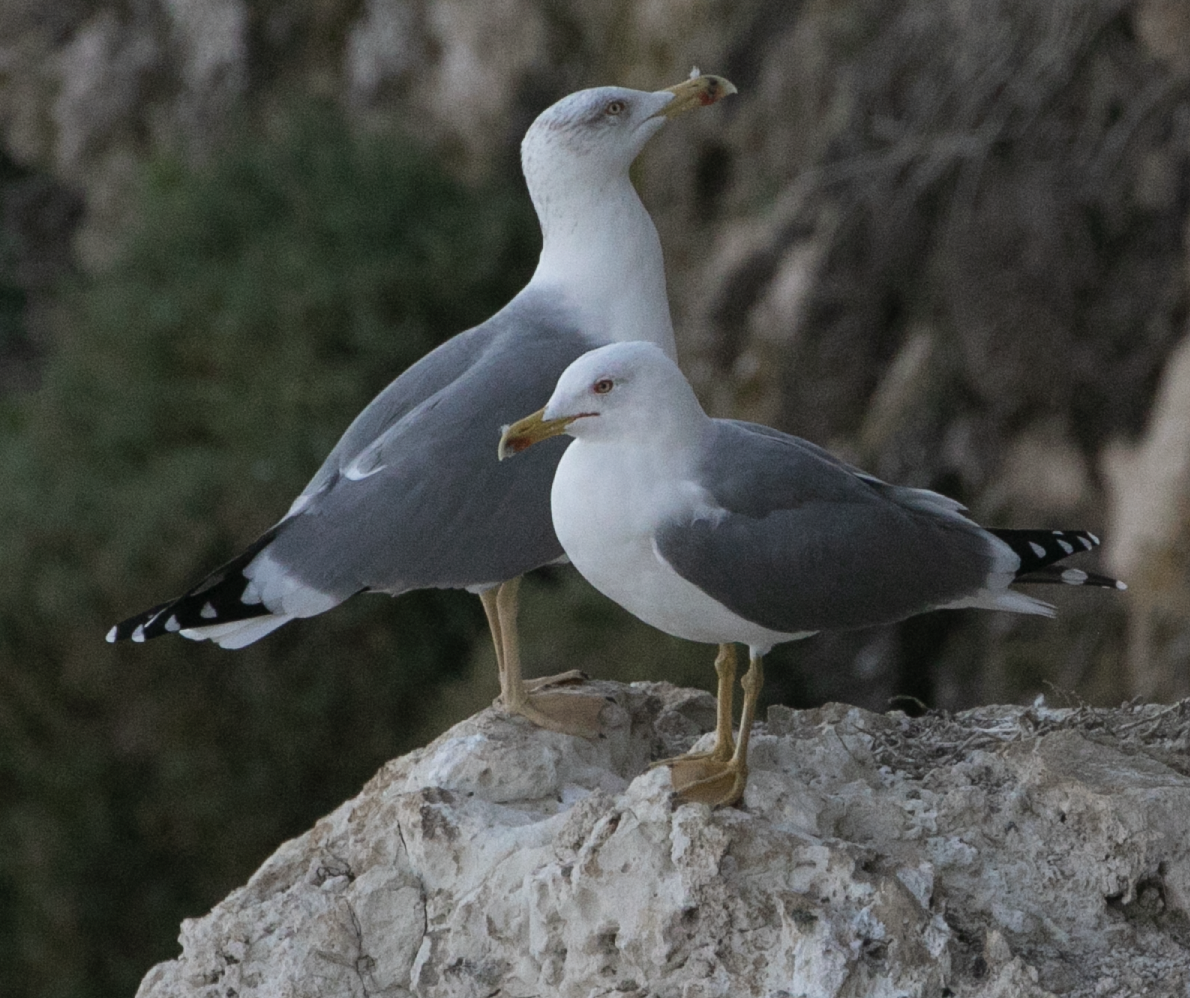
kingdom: Animalia
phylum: Chordata
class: Aves
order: Charadriiformes
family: Laridae
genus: Larus
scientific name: Larus michahellis
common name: Yellow-legged gull
